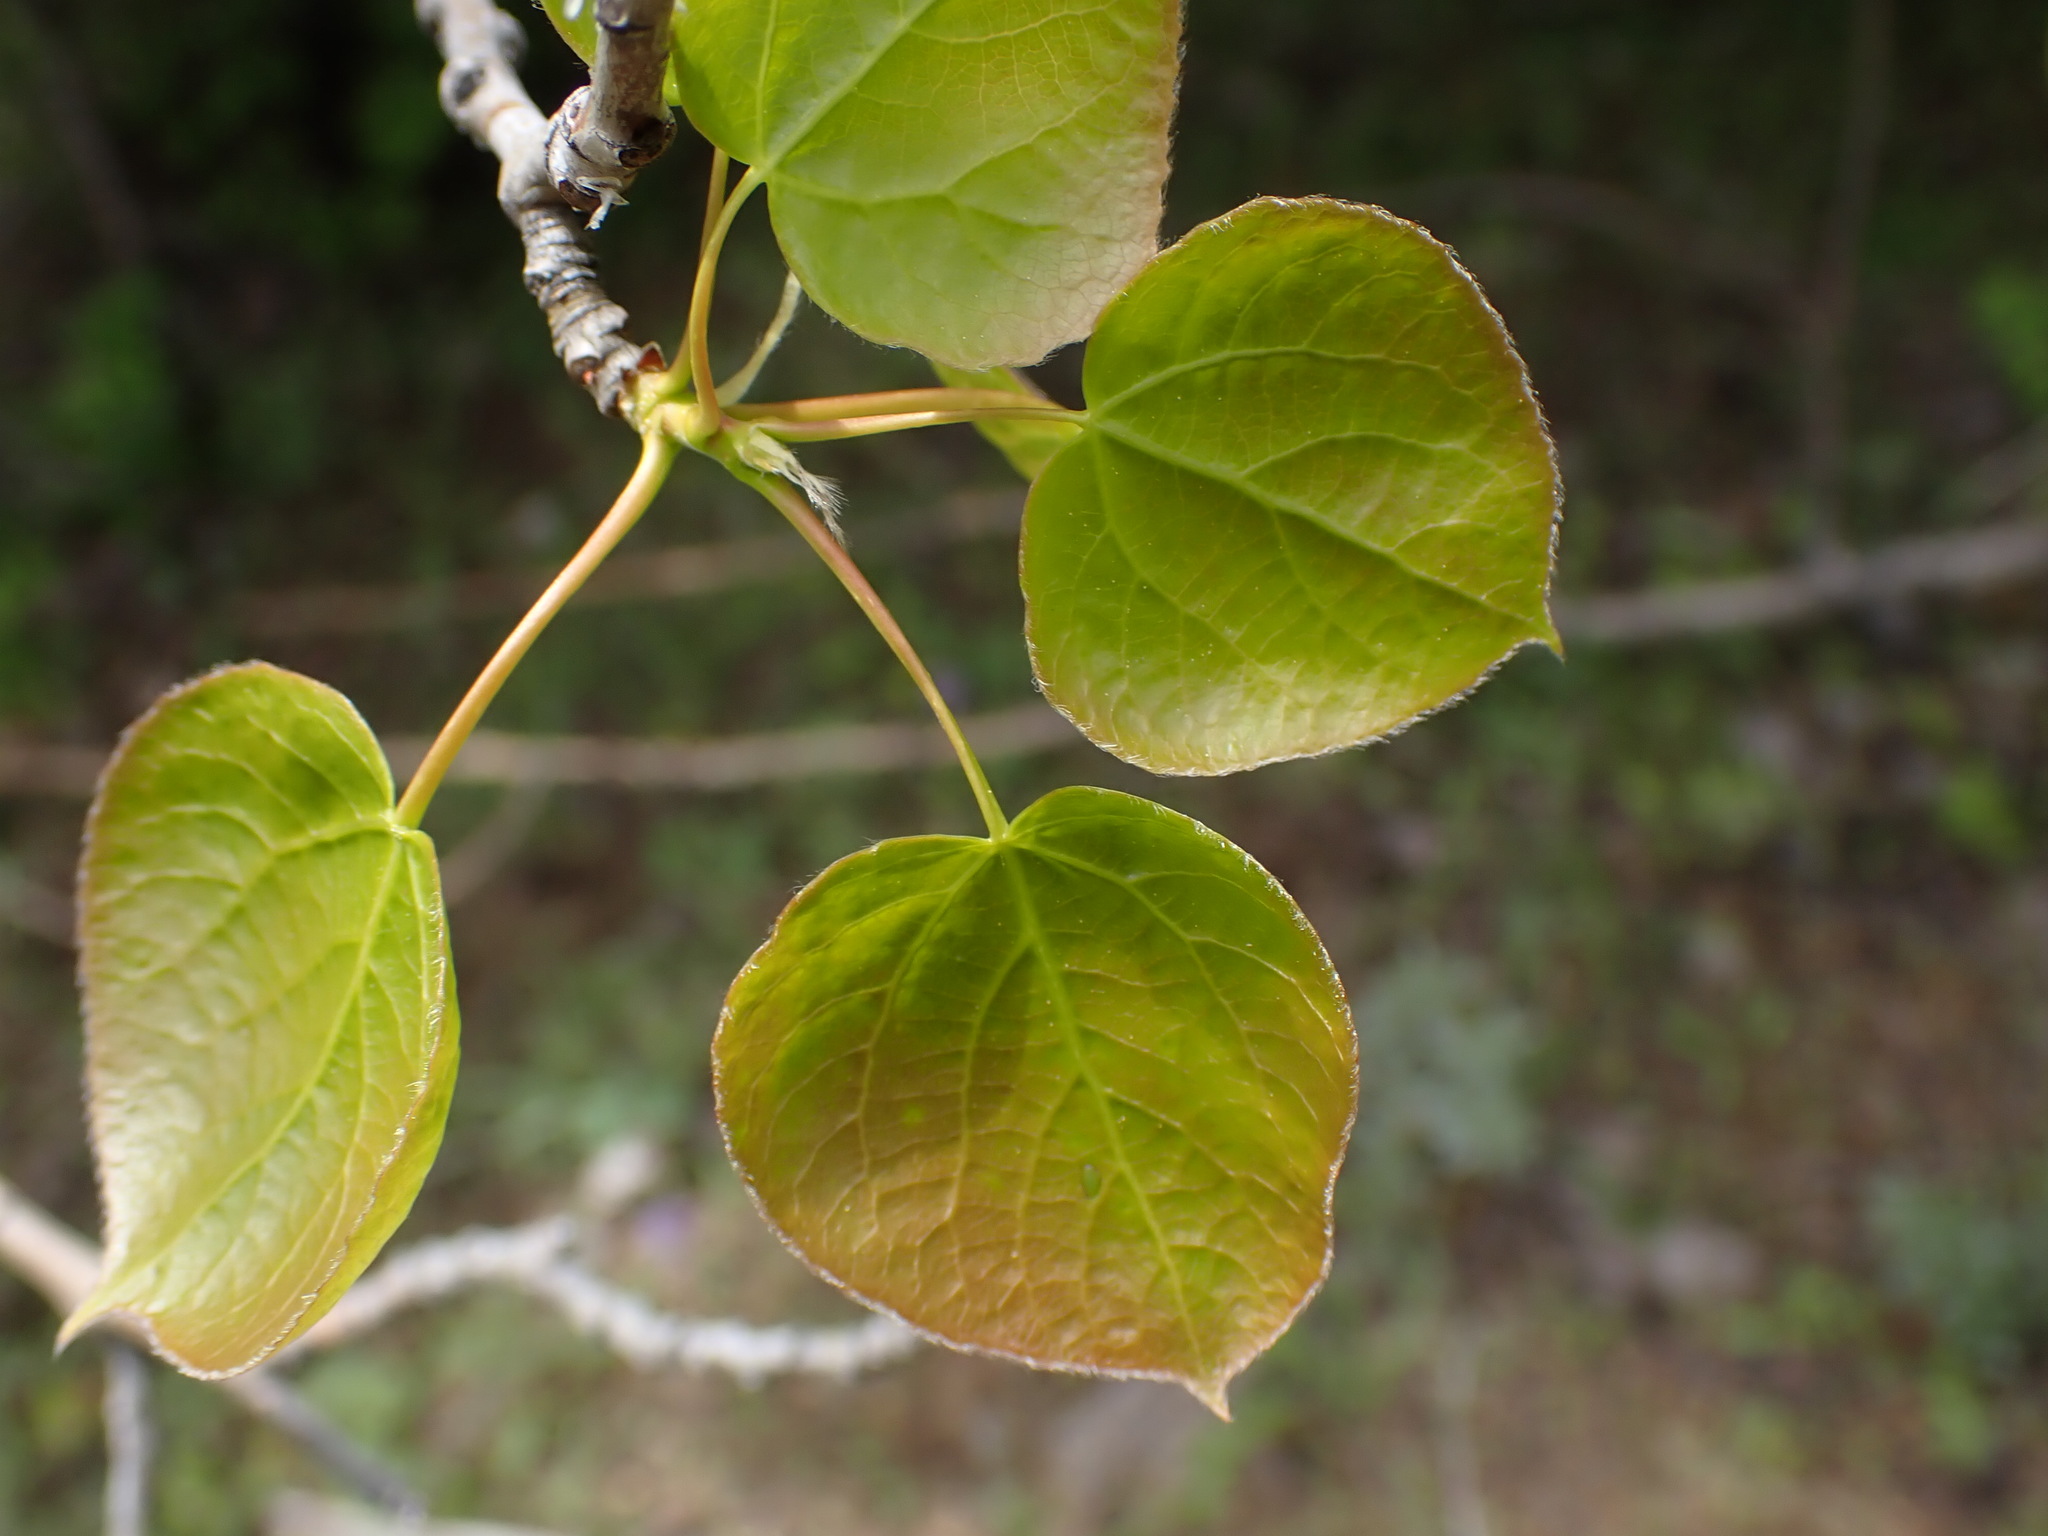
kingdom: Plantae
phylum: Tracheophyta
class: Magnoliopsida
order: Malpighiales
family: Salicaceae
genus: Populus
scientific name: Populus tremuloides
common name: Quaking aspen
